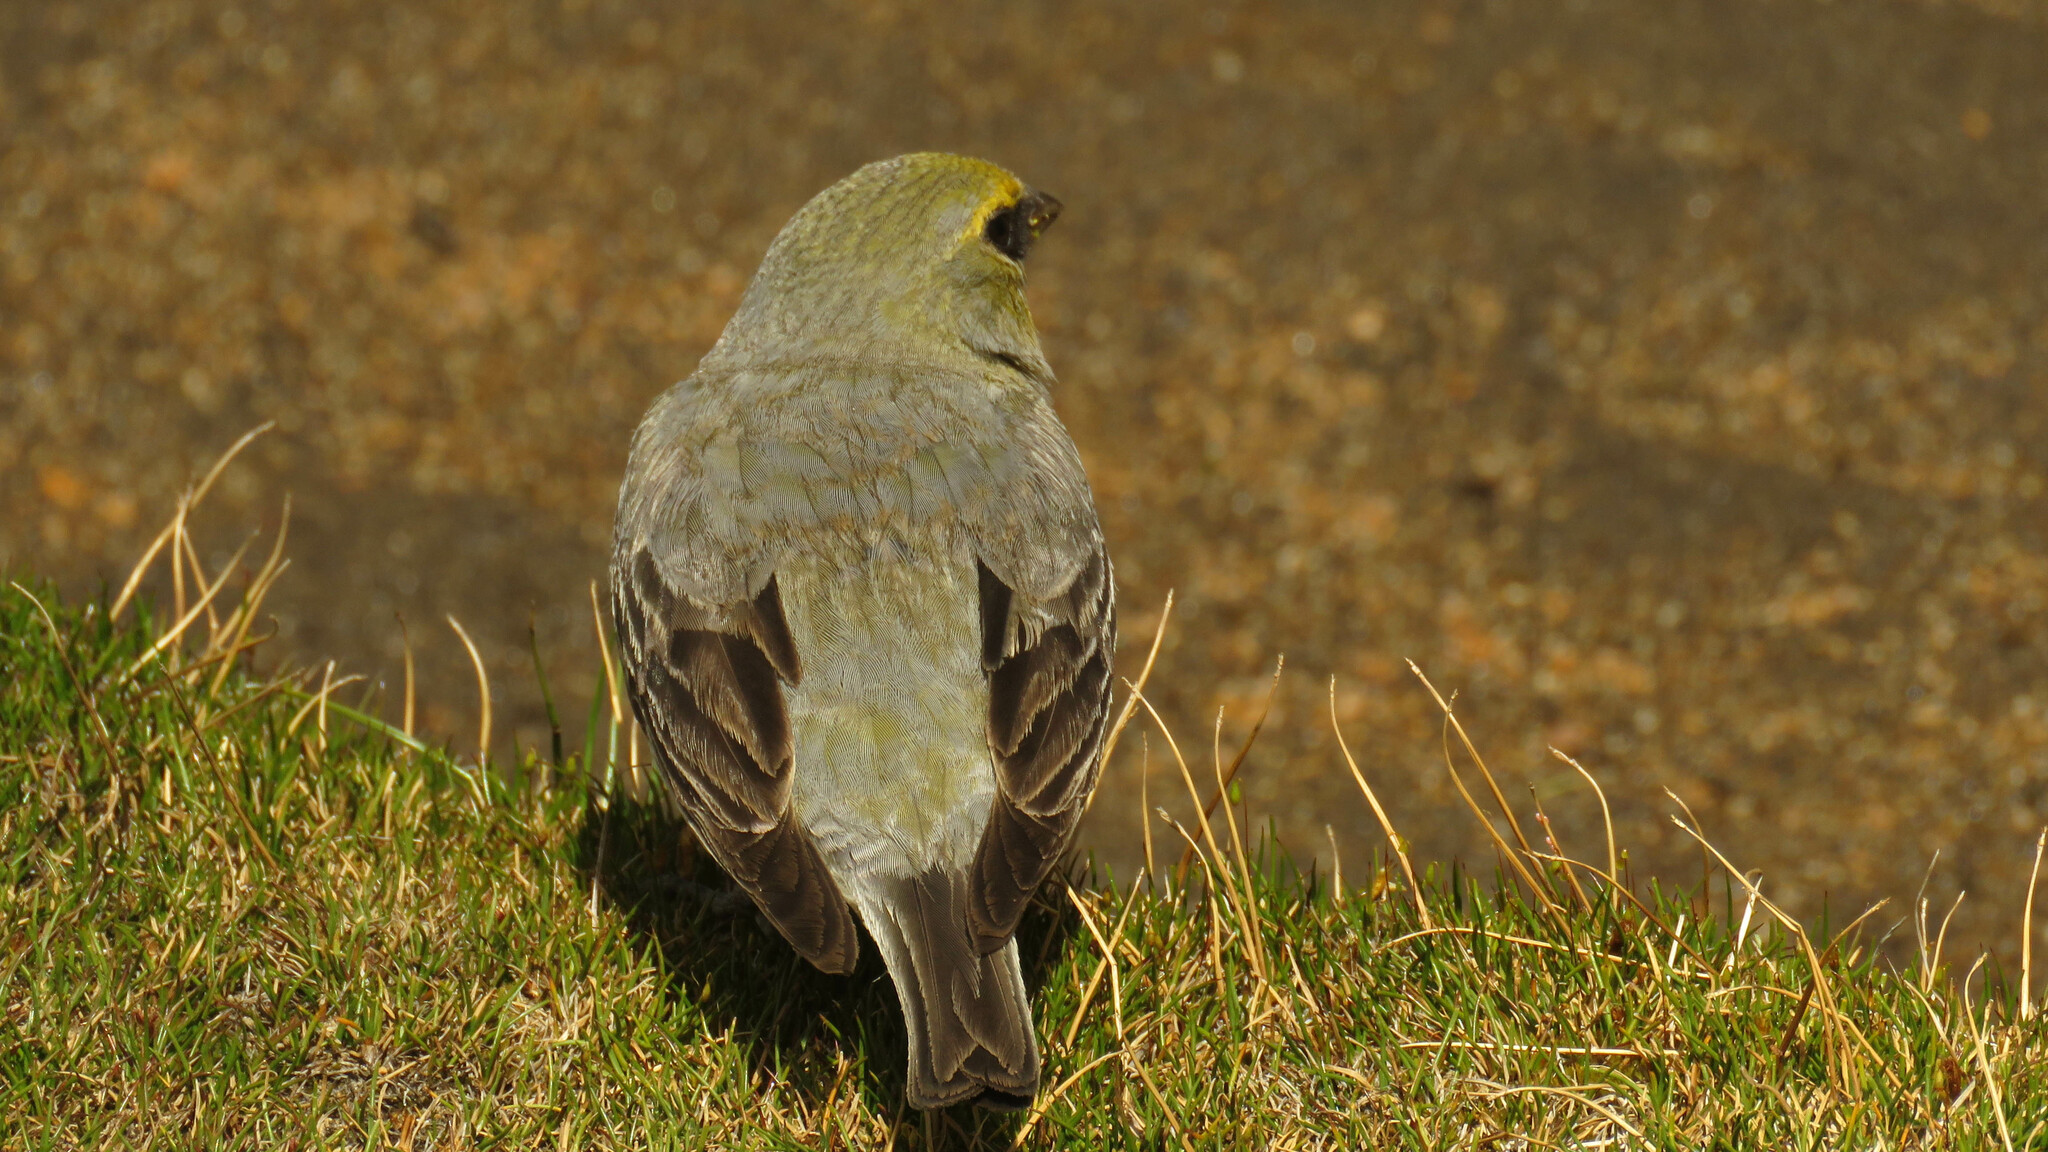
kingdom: Animalia
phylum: Chordata
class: Aves
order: Passeriformes
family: Thraupidae
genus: Melanodera
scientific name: Melanodera xanthogramma
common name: Yellow-bridled finch
